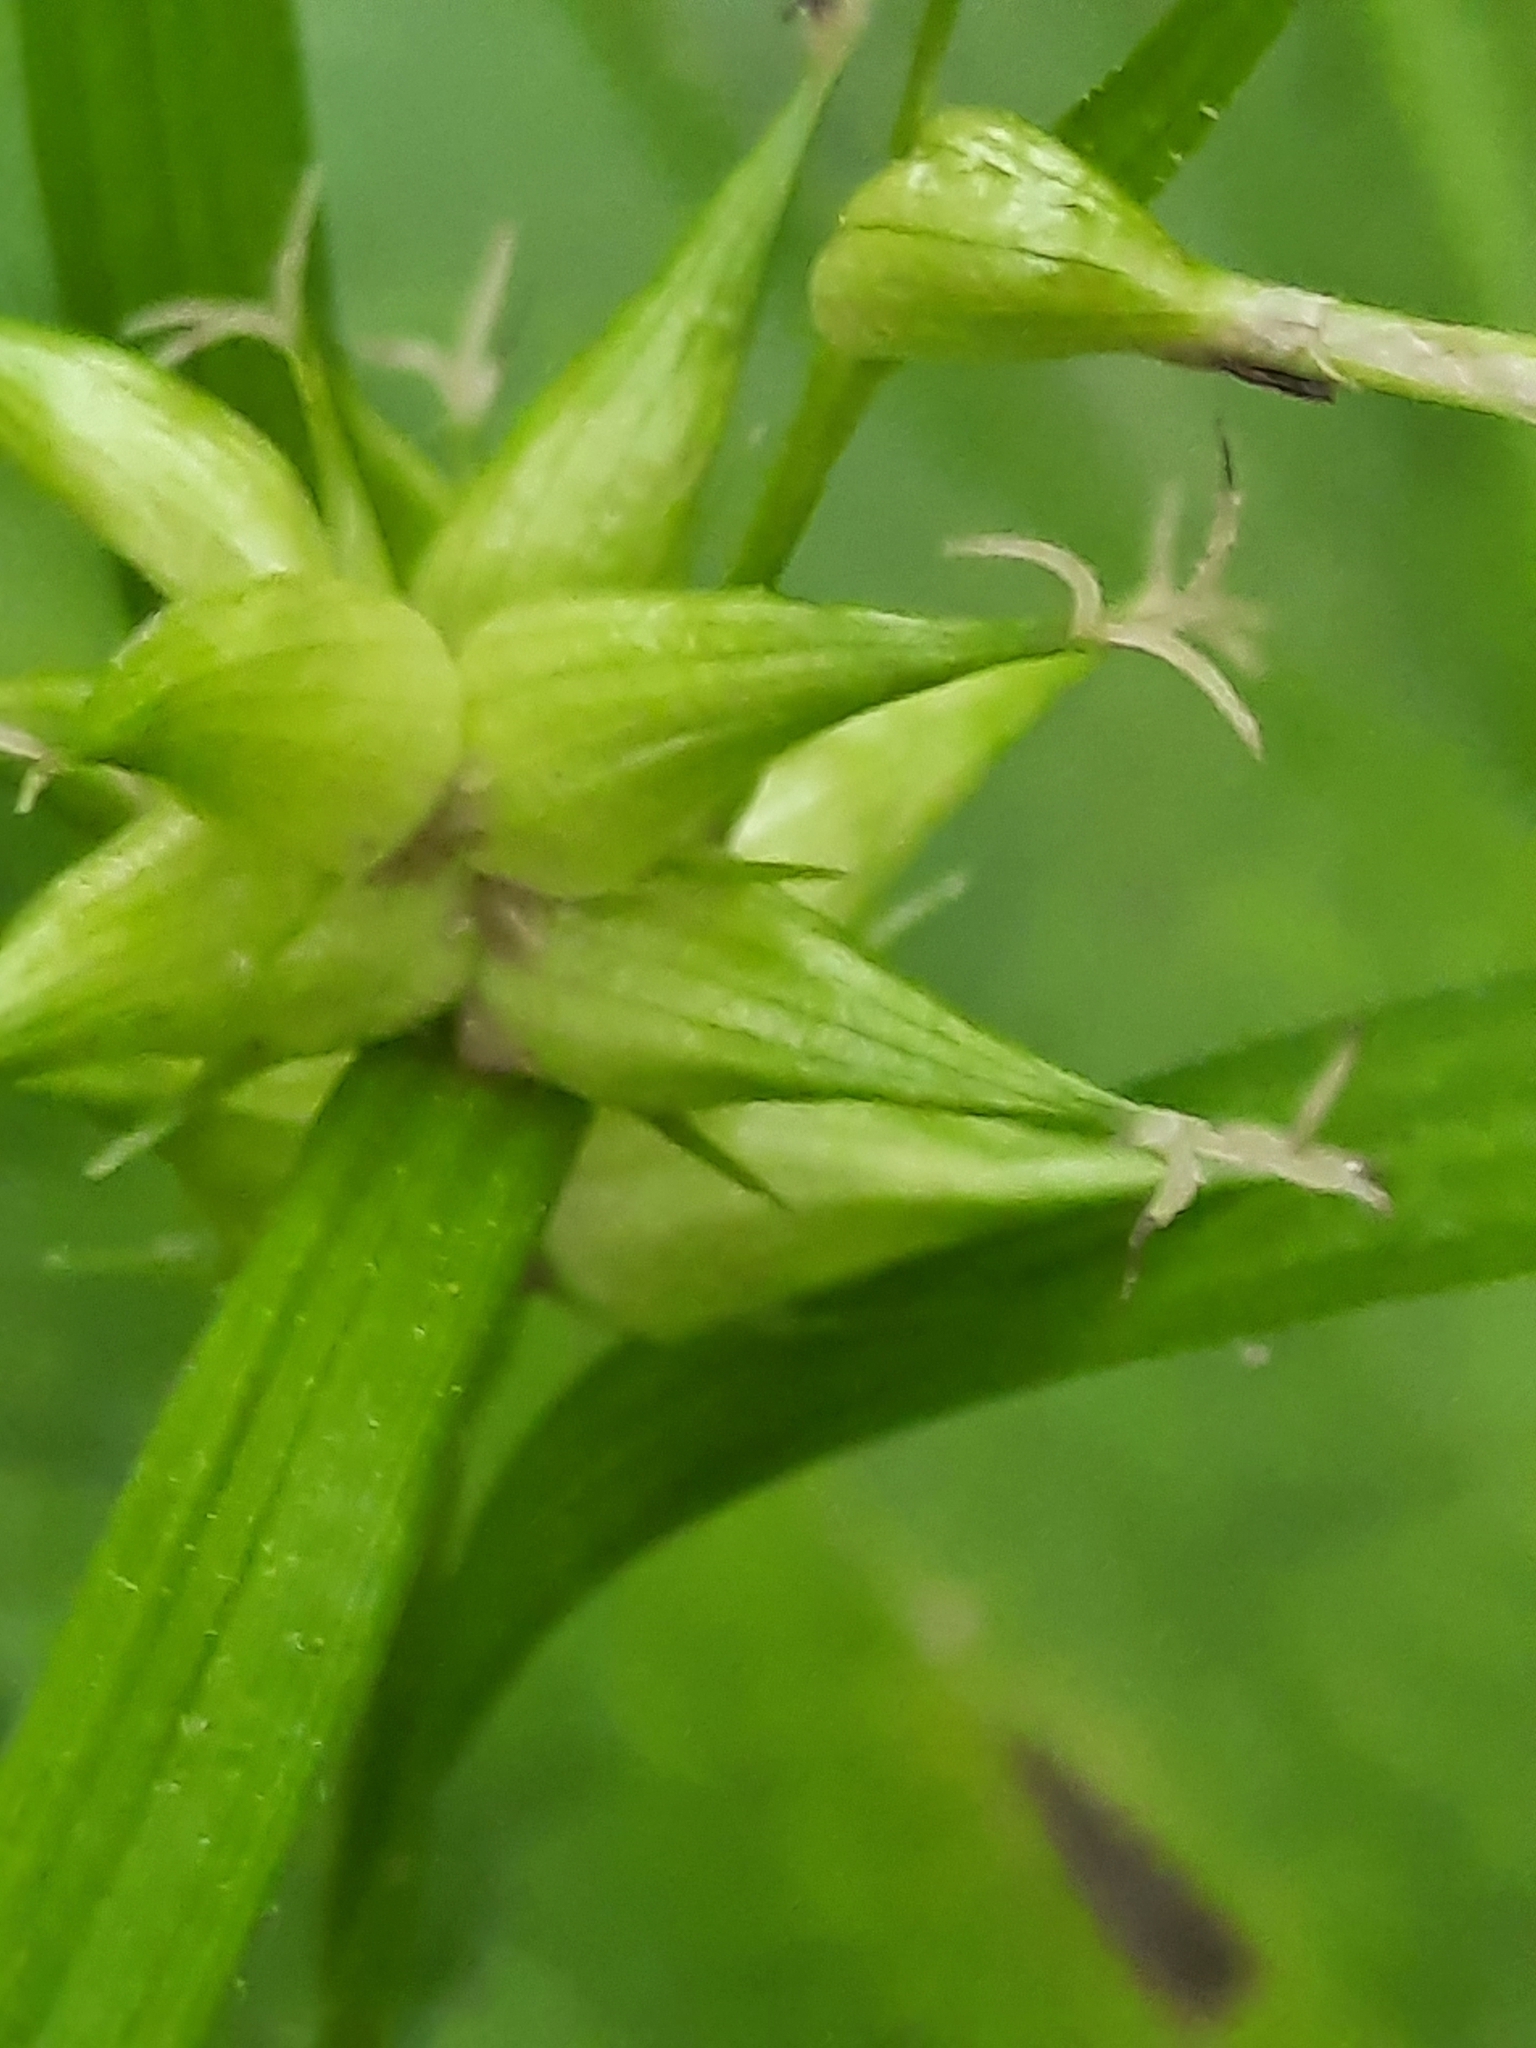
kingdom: Plantae
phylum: Tracheophyta
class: Liliopsida
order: Poales
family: Cyperaceae
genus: Carex
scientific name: Carex intumescens
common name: Greater bladder sedge
